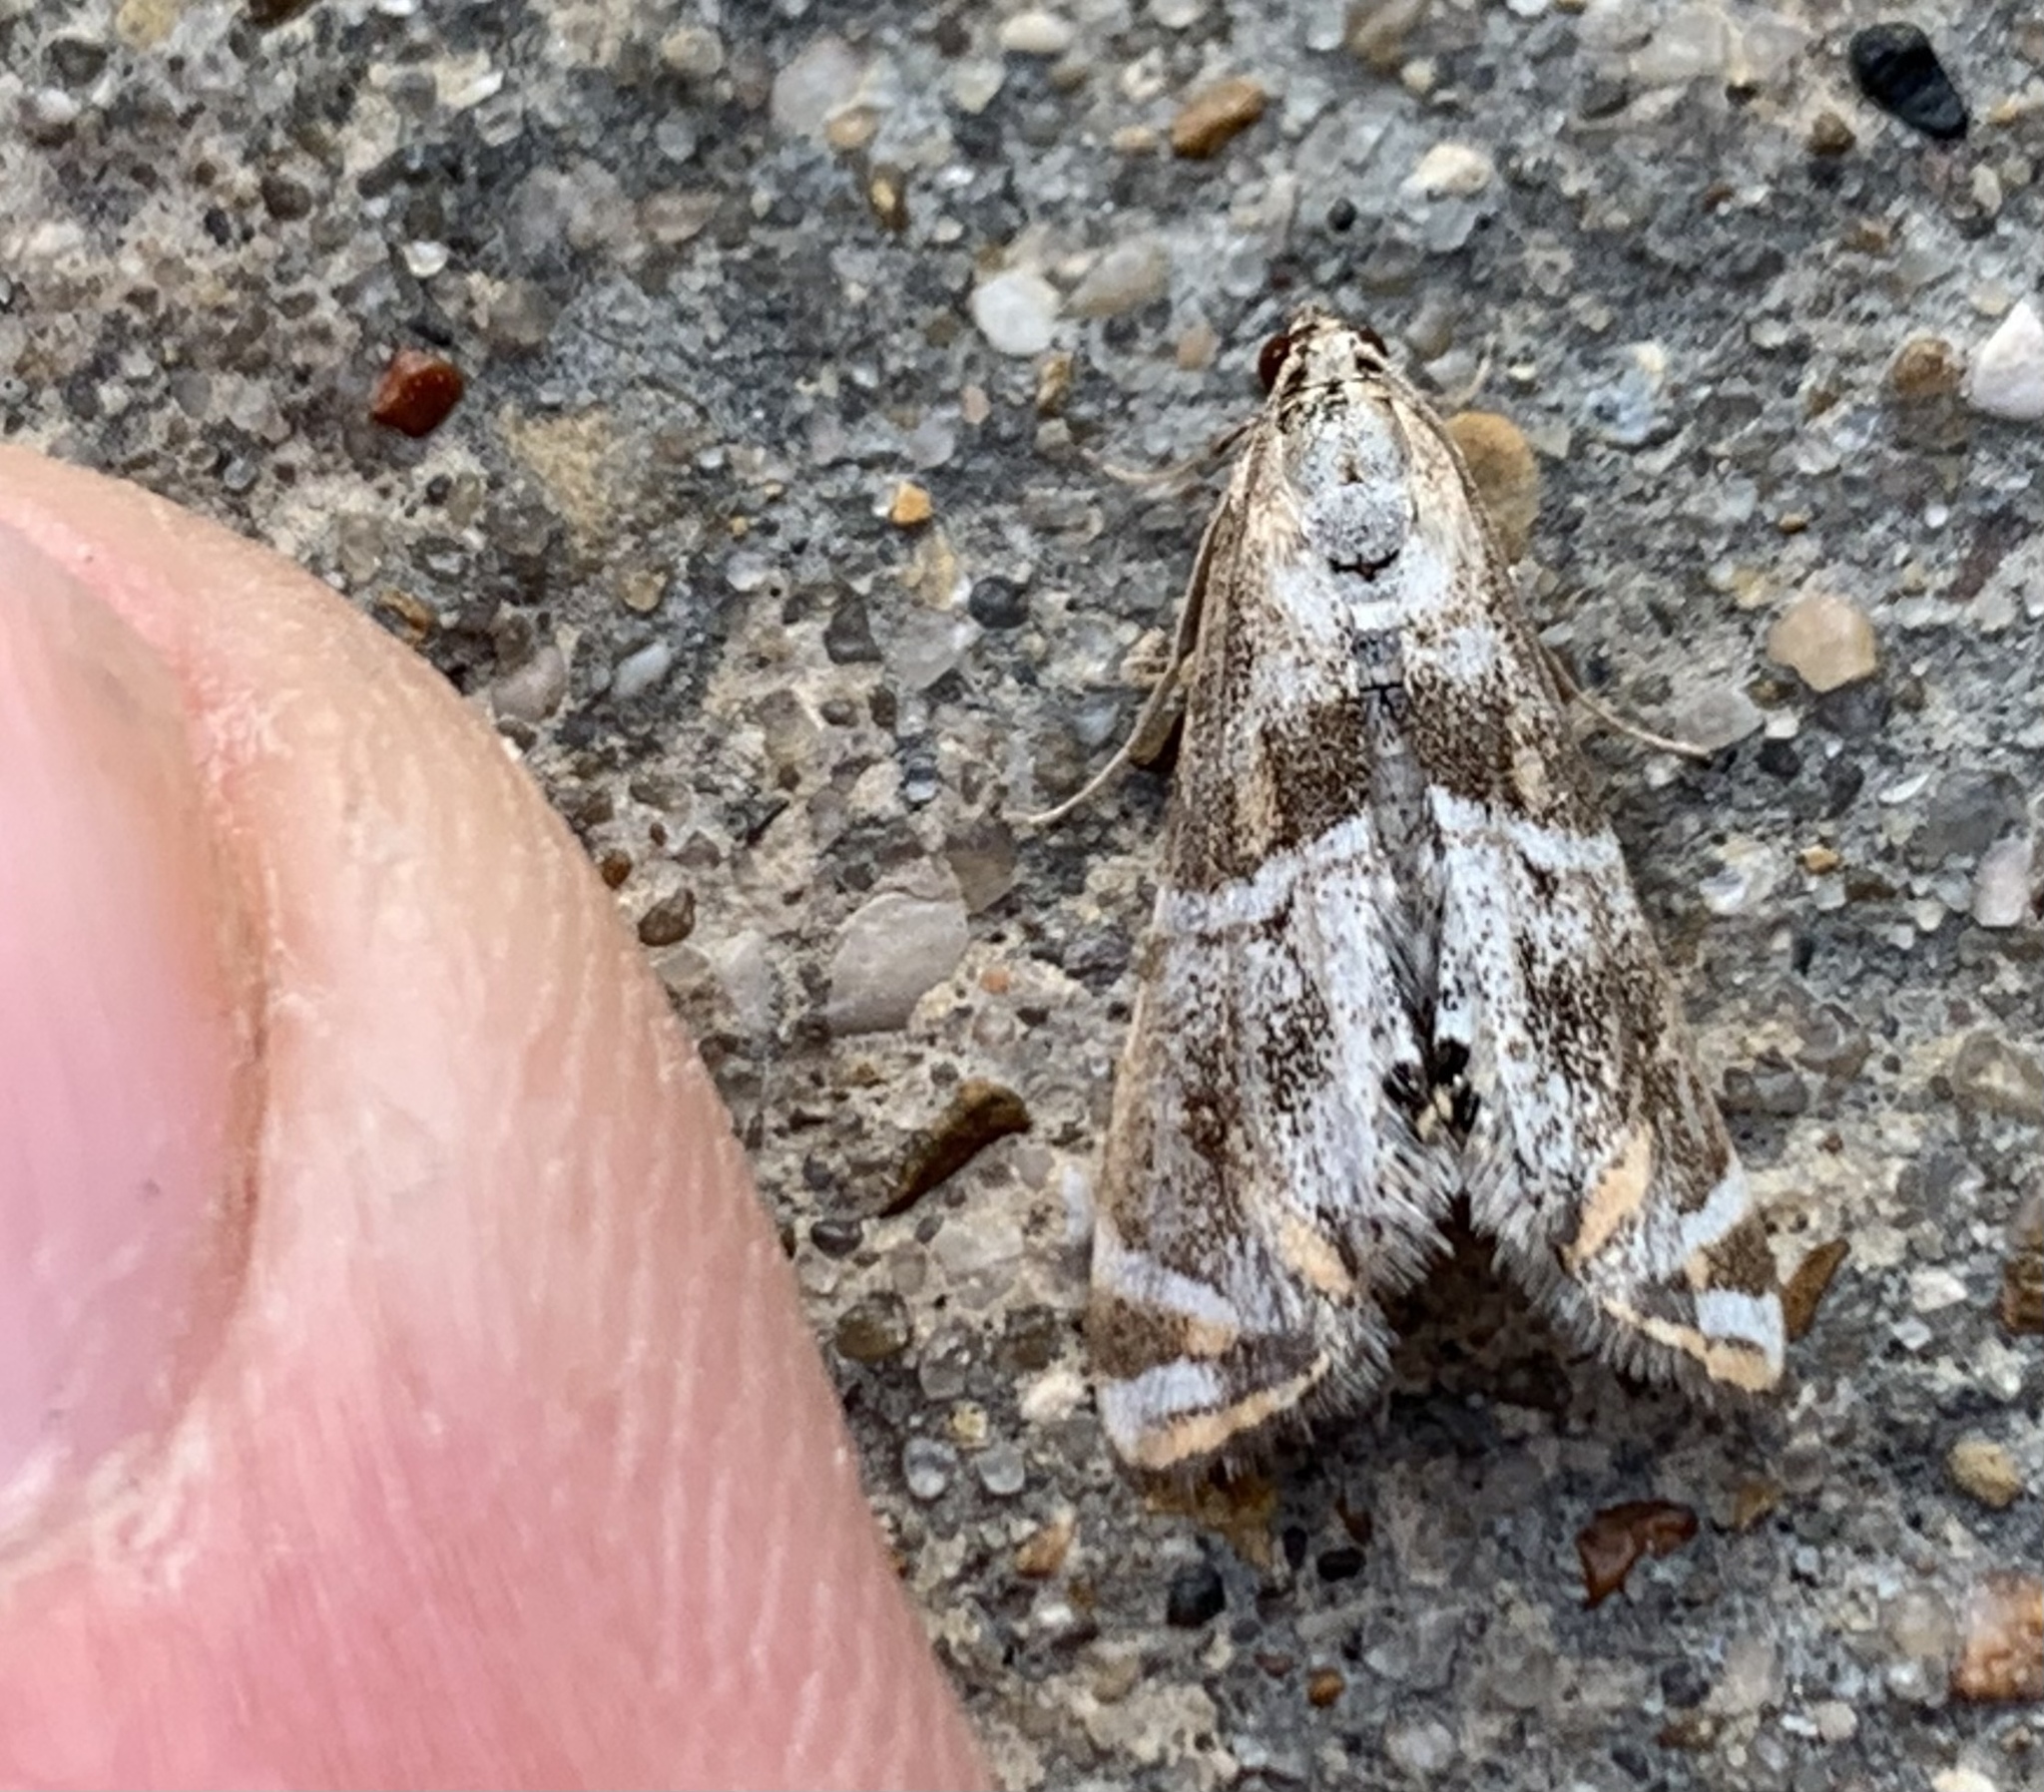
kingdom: Animalia
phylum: Arthropoda
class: Insecta
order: Lepidoptera
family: Crambidae
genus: Petrophila
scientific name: Petrophila jaliscalis
